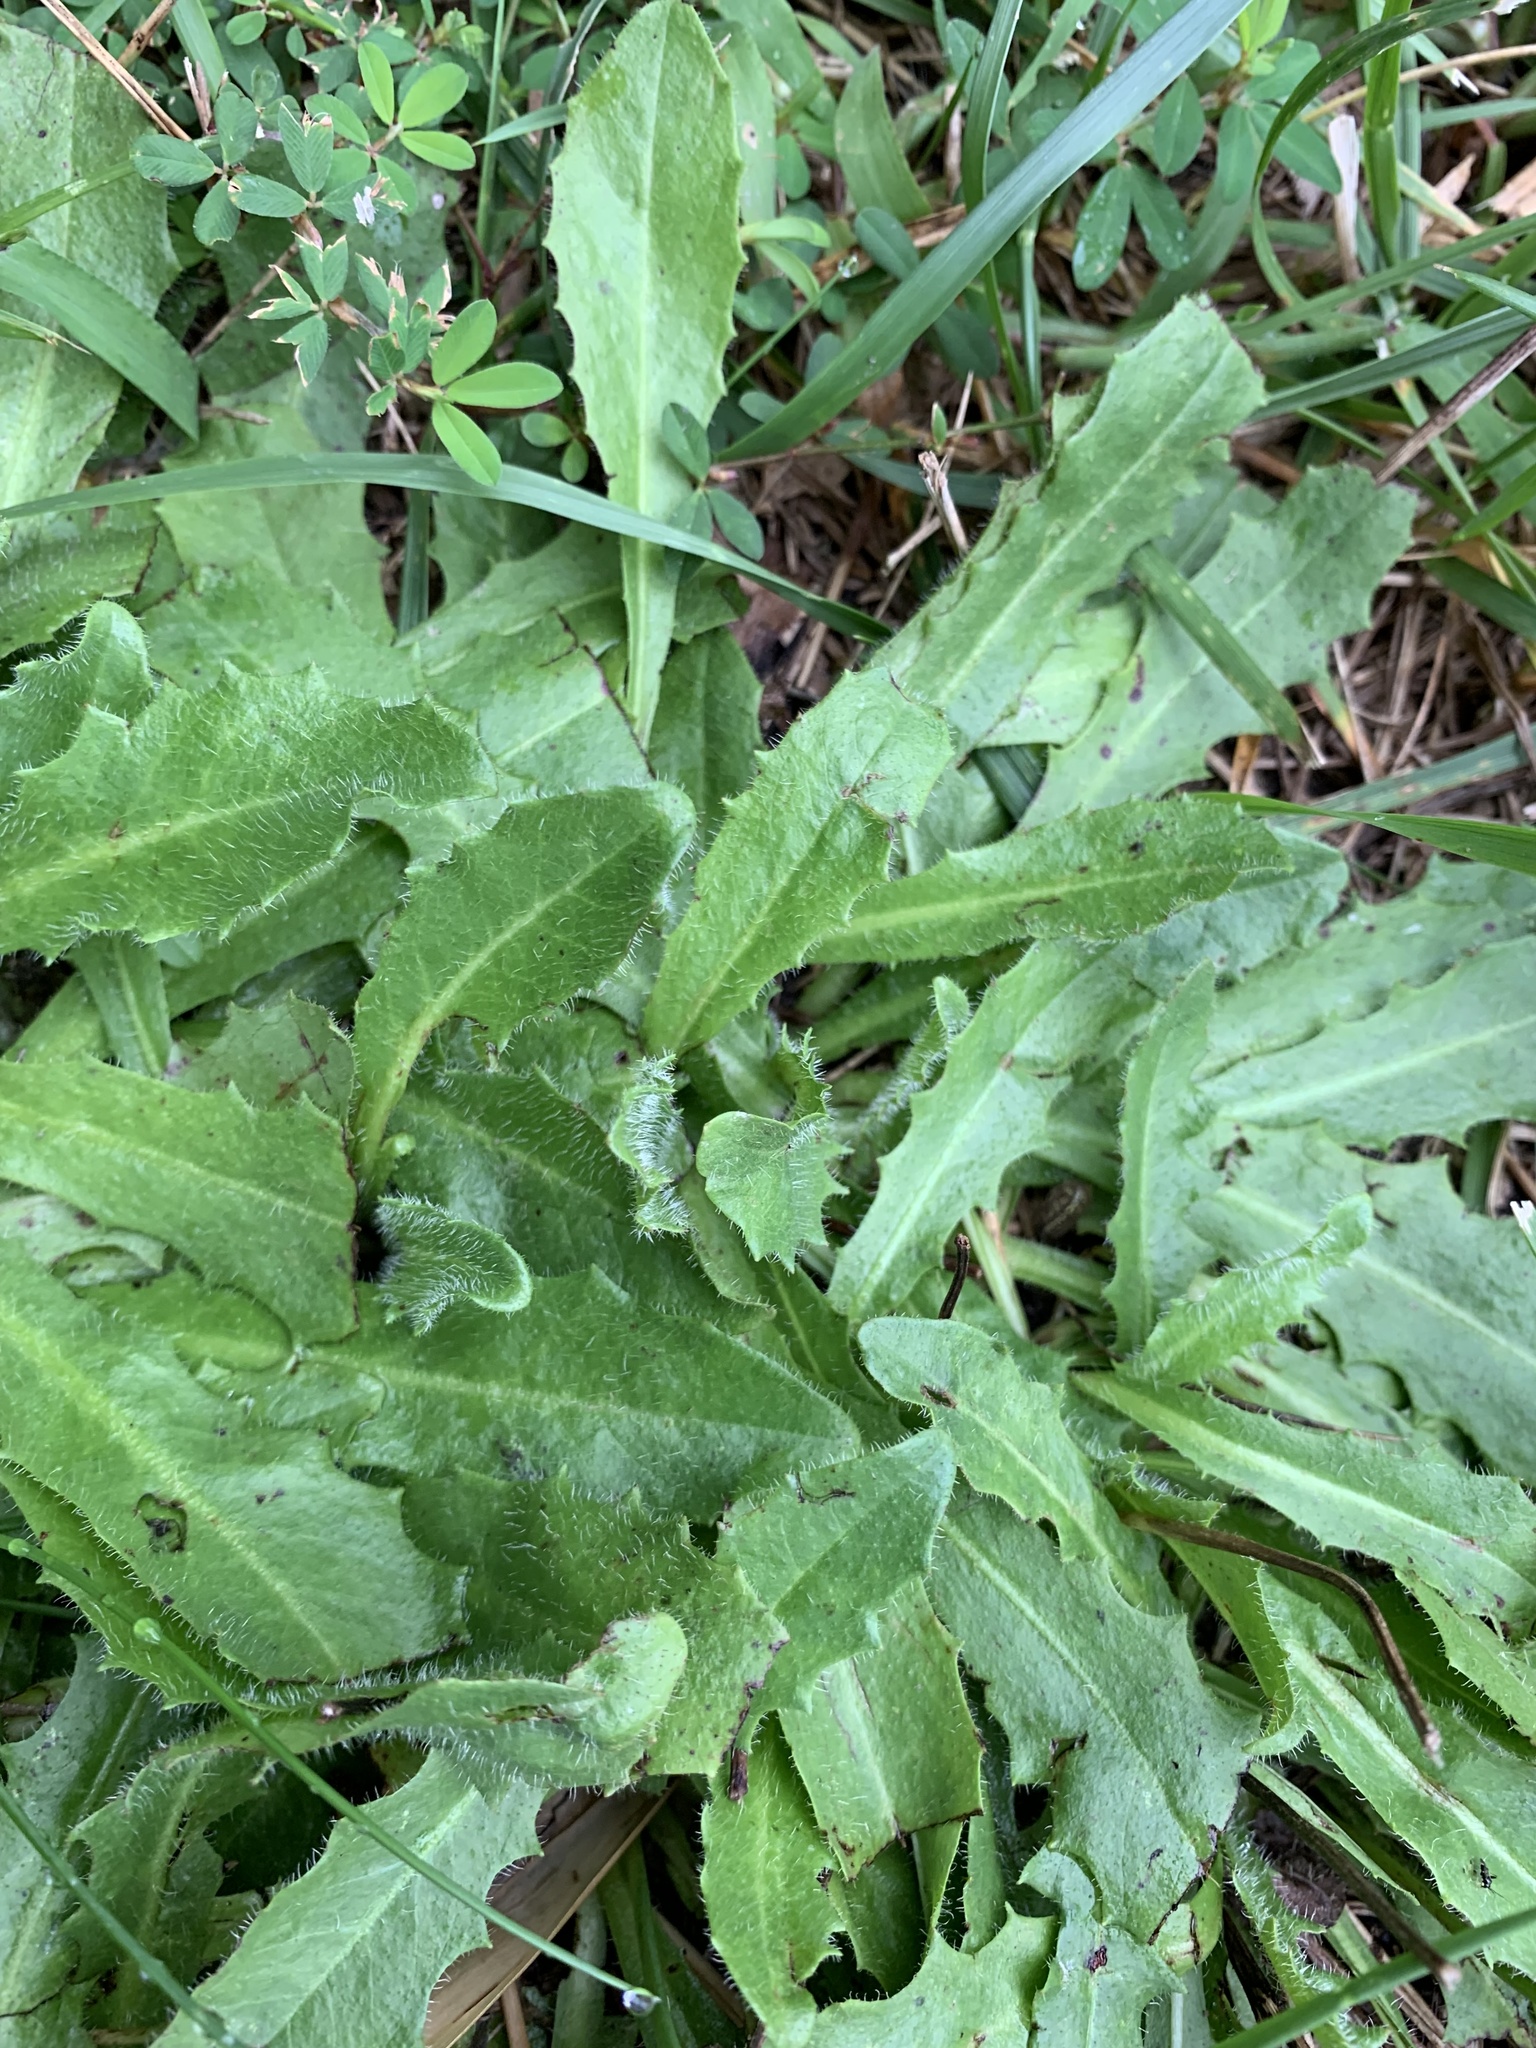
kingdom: Plantae
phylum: Tracheophyta
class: Magnoliopsida
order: Asterales
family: Asteraceae
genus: Hypochaeris
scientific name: Hypochaeris radicata
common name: Flatweed
